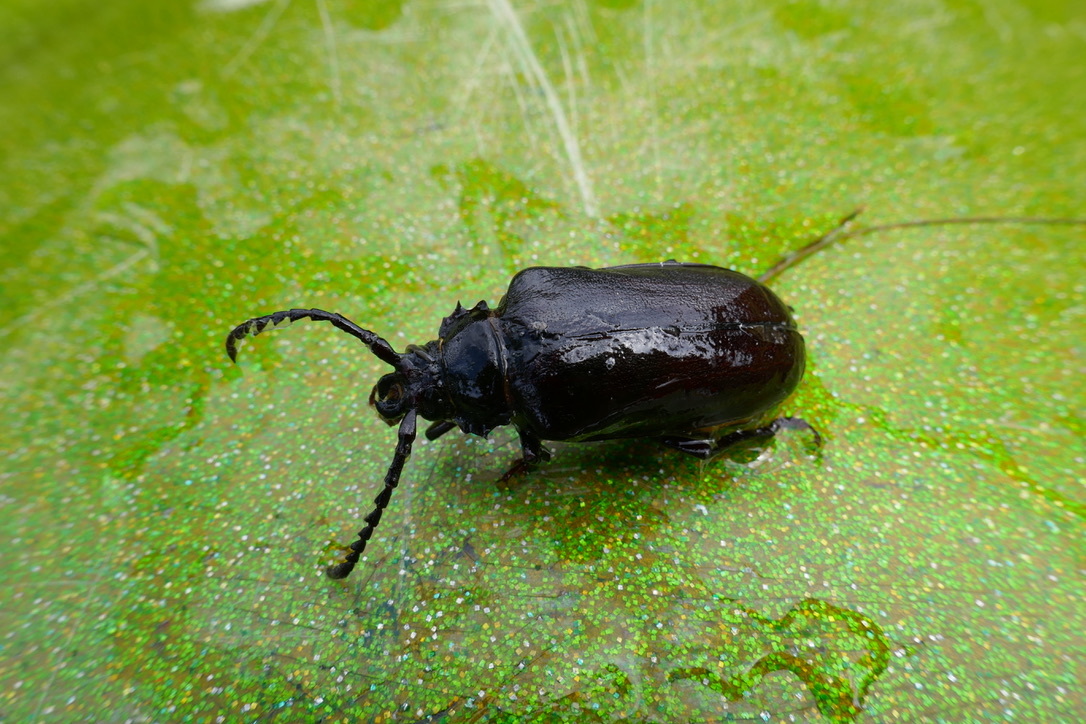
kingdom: Animalia
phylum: Arthropoda
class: Insecta
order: Coleoptera
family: Cerambycidae
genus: Prionus
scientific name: Prionus coriarius
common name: Tanner beetle
